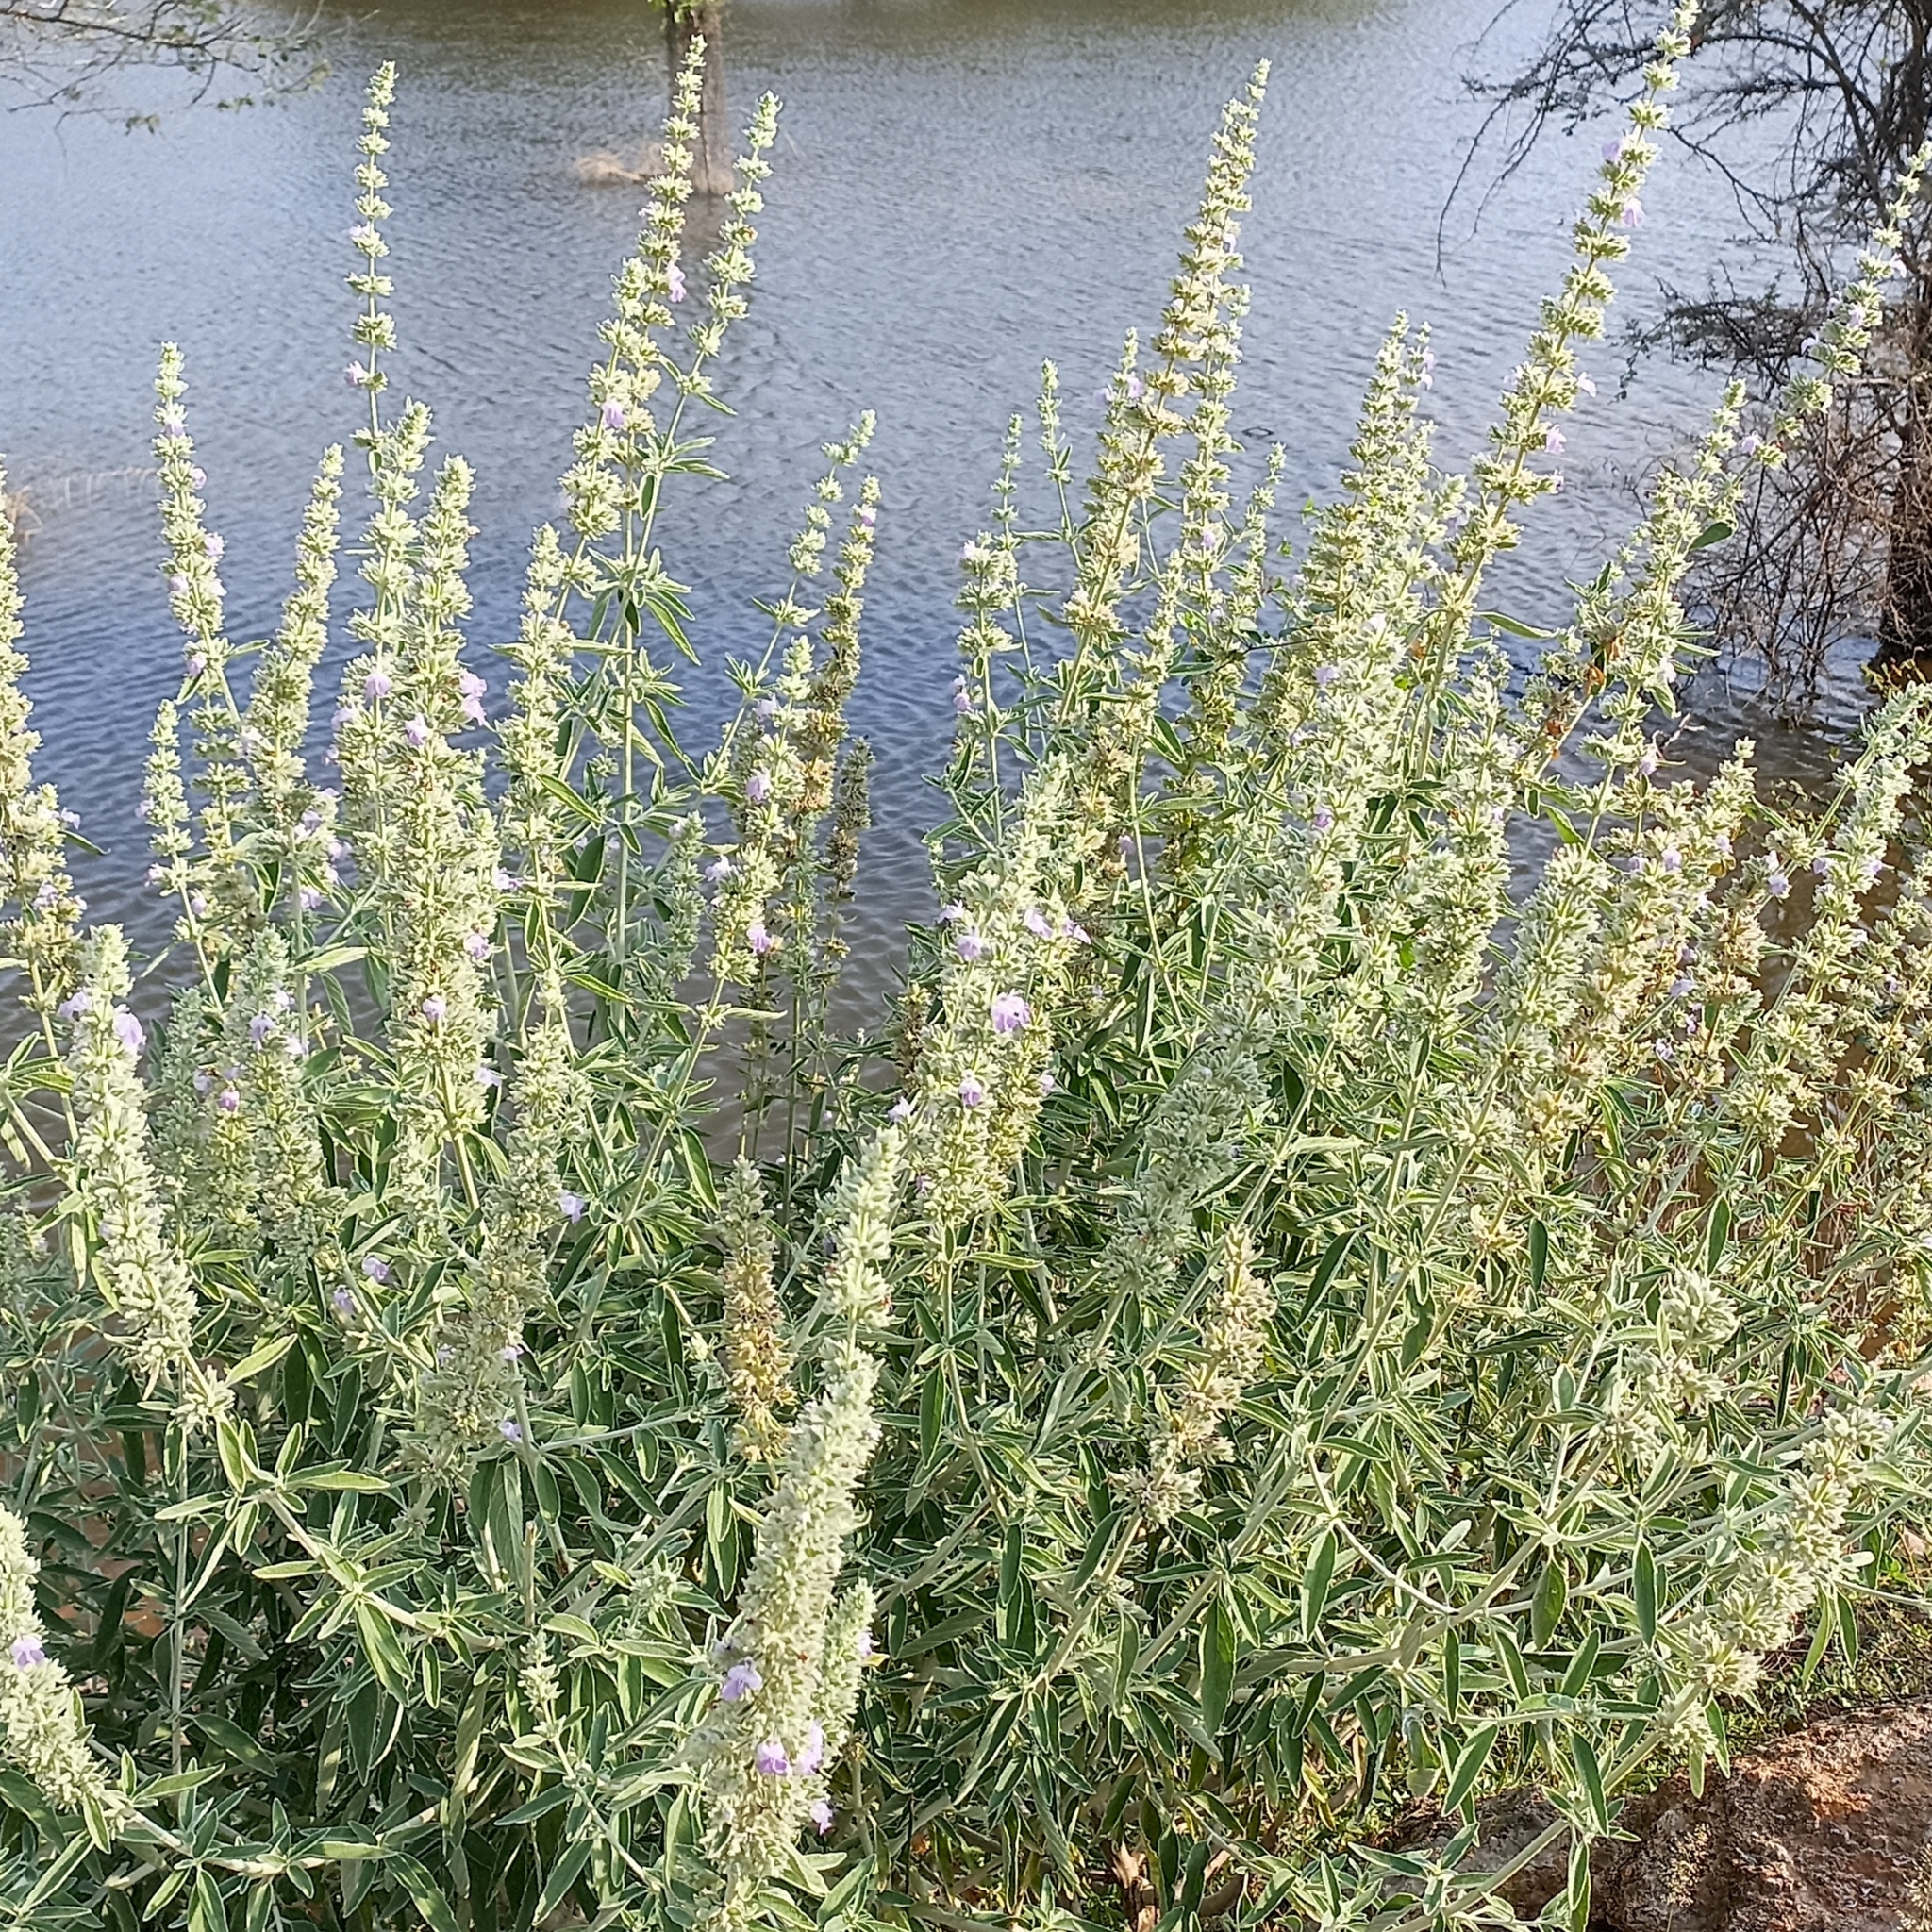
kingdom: Plantae
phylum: Tracheophyta
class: Magnoliopsida
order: Lamiales
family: Lamiaceae
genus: Anisomeles
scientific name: Anisomeles malabarica
